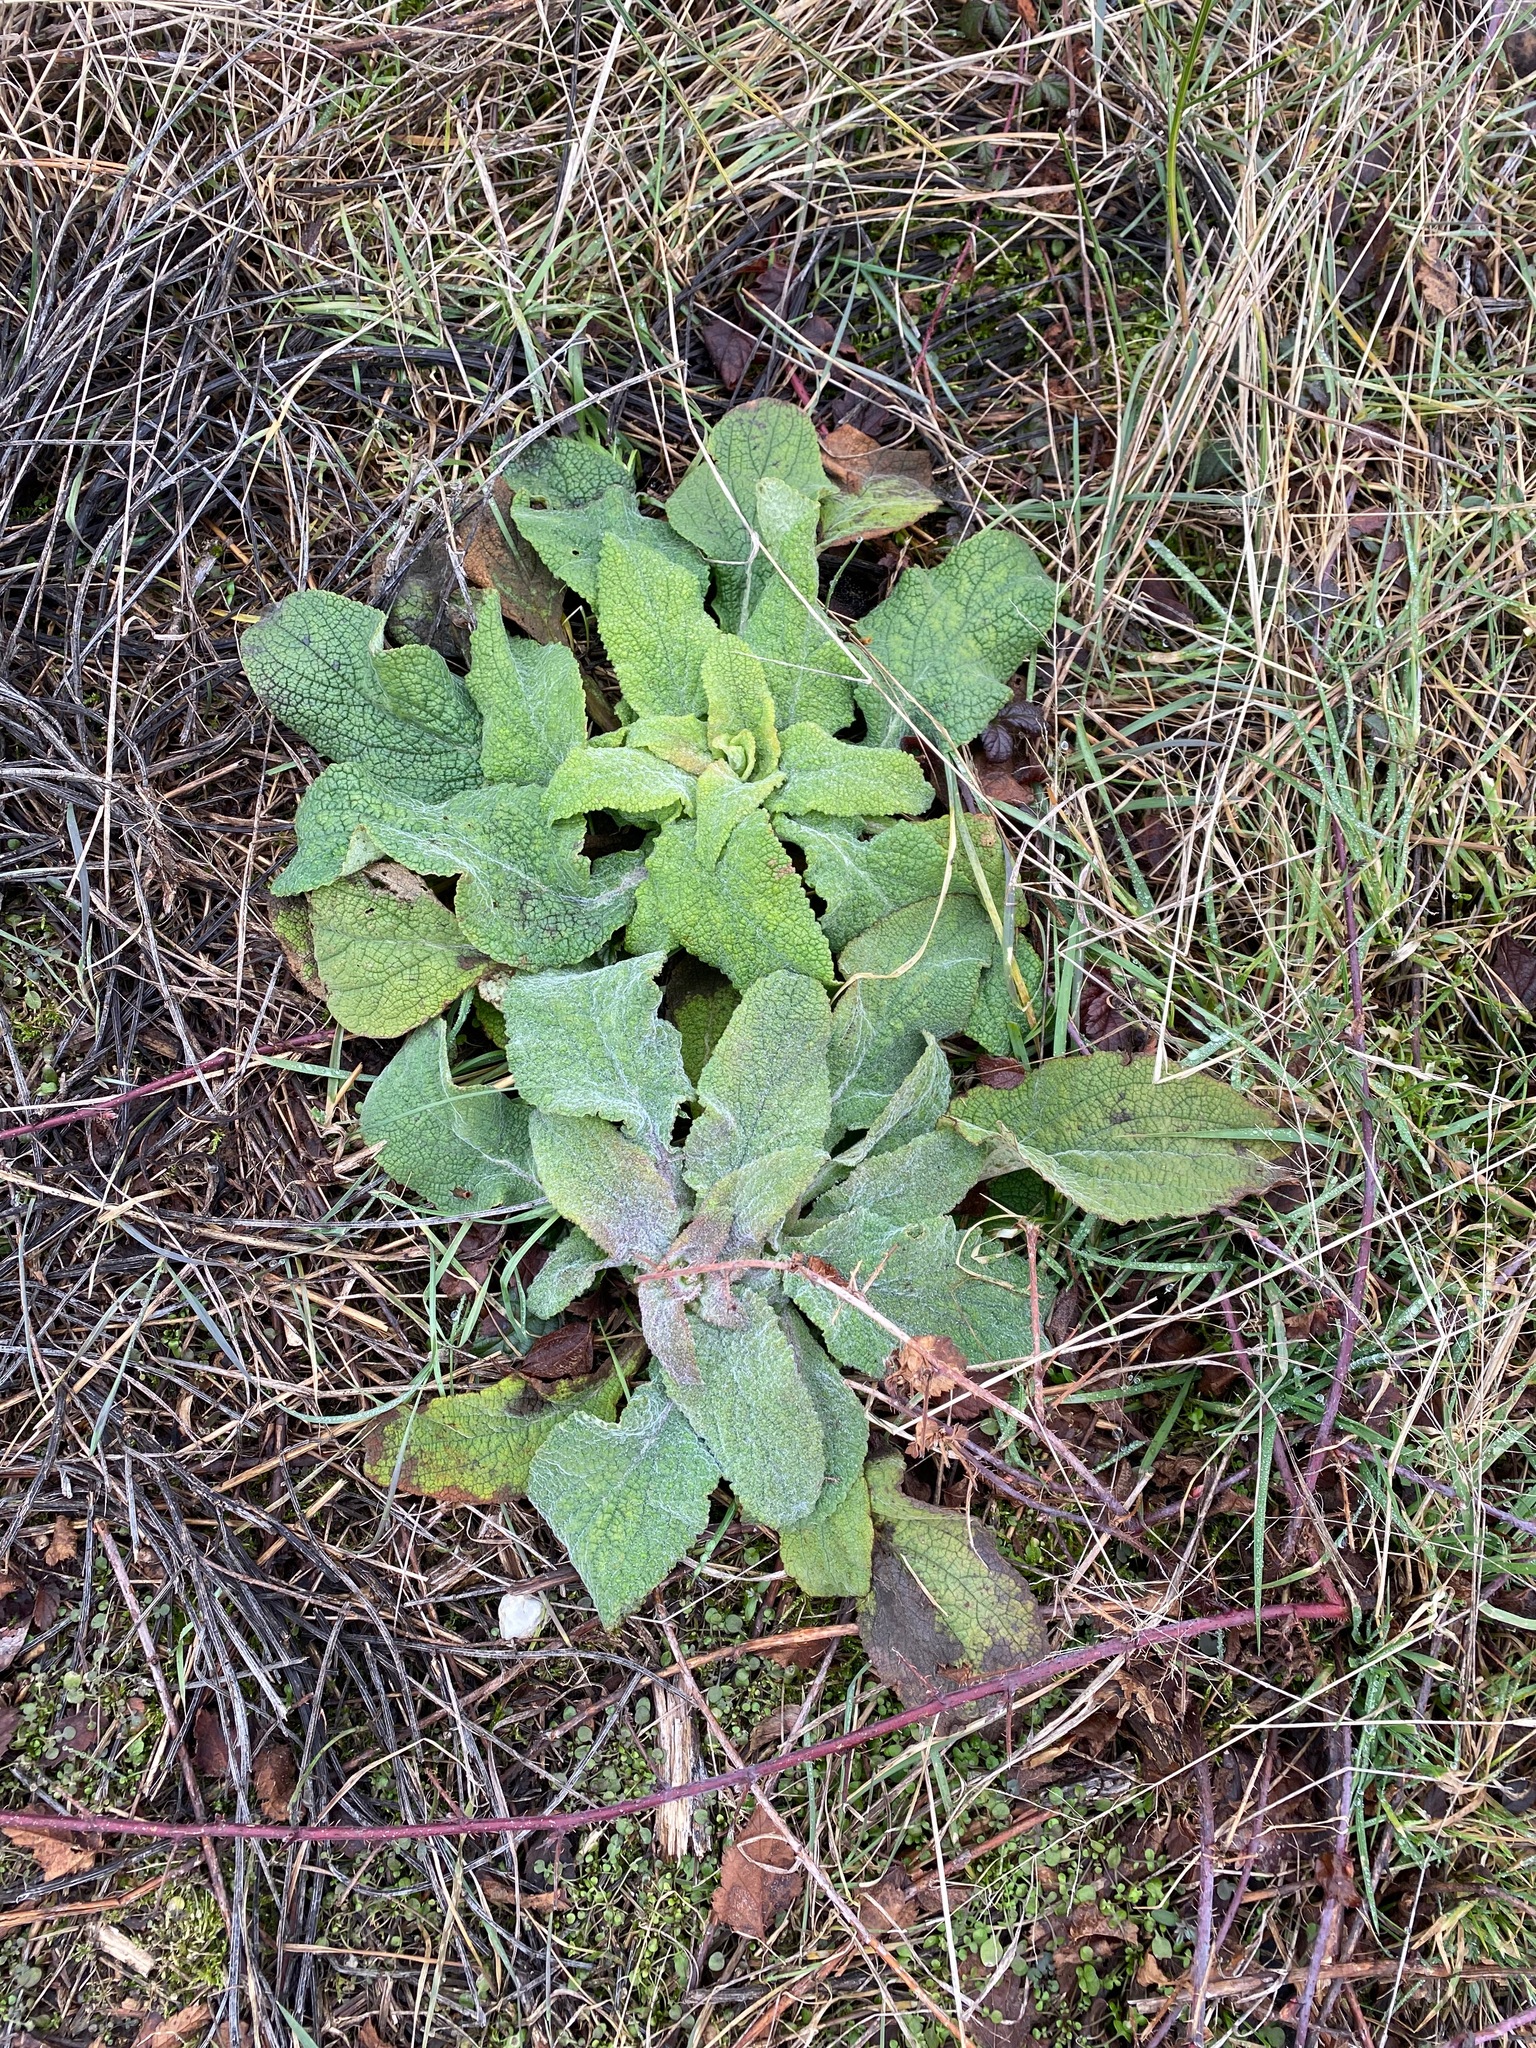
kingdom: Plantae
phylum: Tracheophyta
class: Magnoliopsida
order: Lamiales
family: Plantaginaceae
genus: Digitalis
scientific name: Digitalis purpurea
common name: Foxglove
